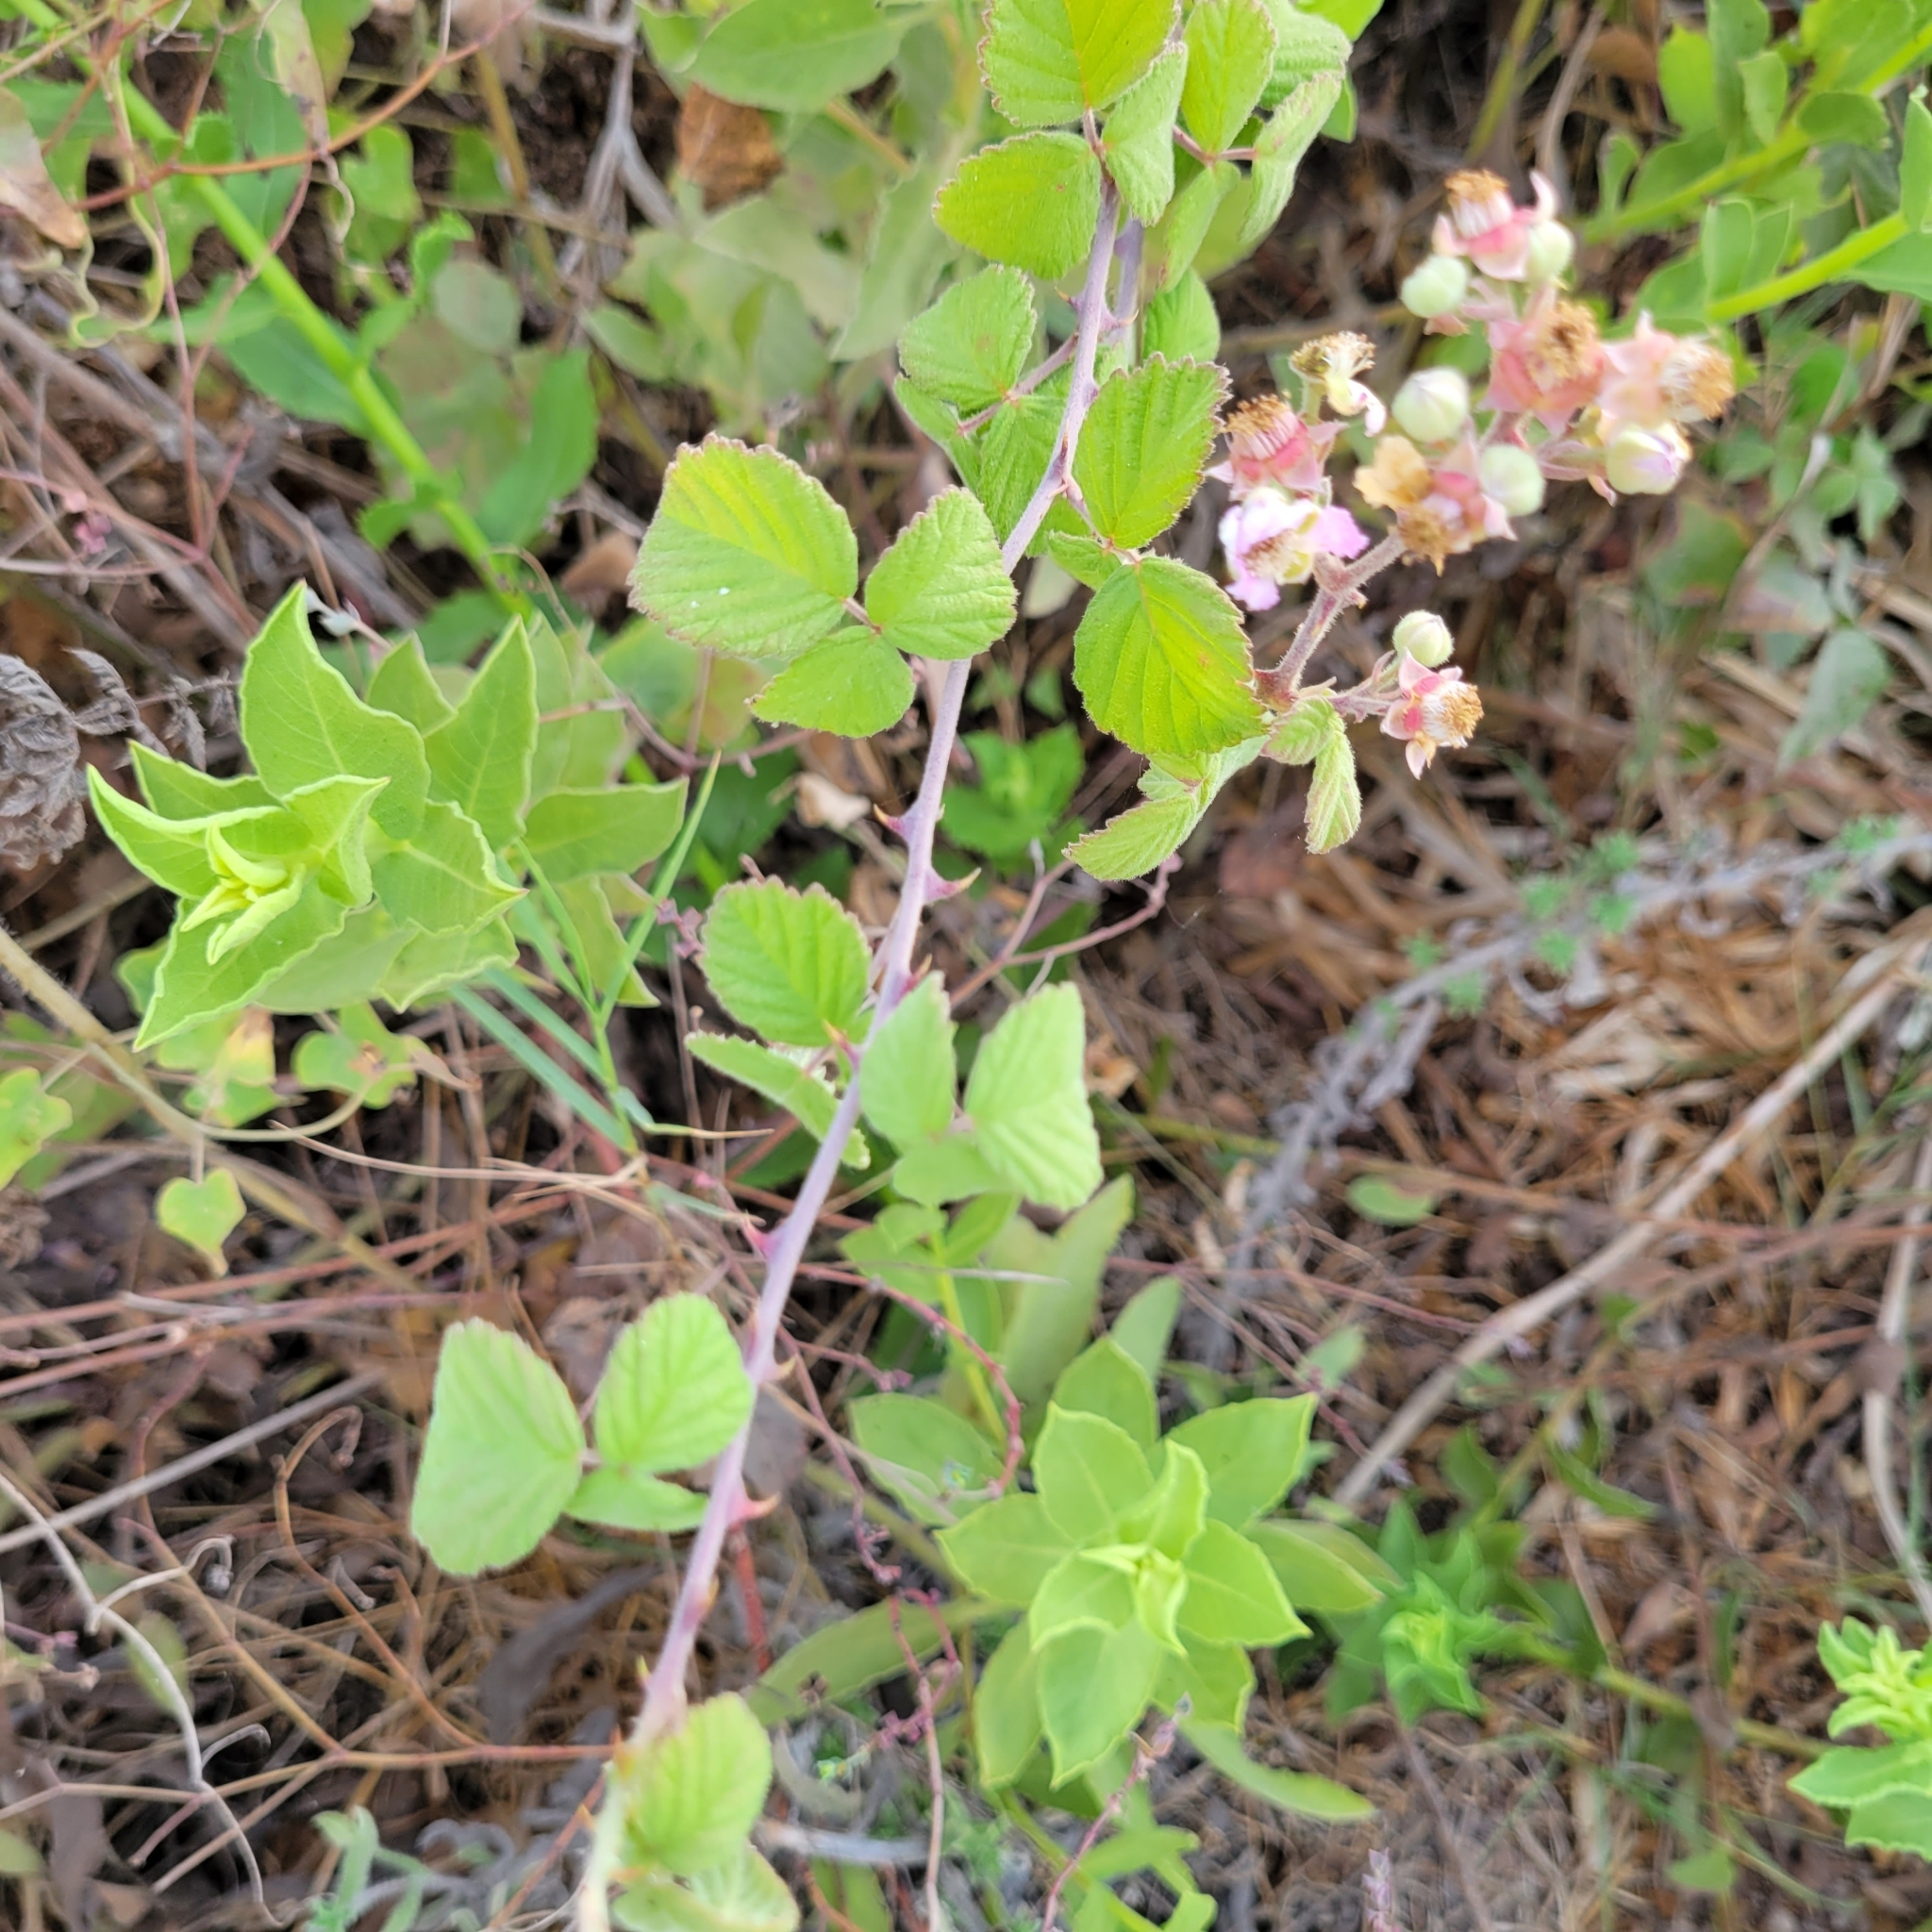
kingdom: Plantae
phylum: Tracheophyta
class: Magnoliopsida
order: Rosales
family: Rosaceae
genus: Rubus
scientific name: Rubus sanctus
